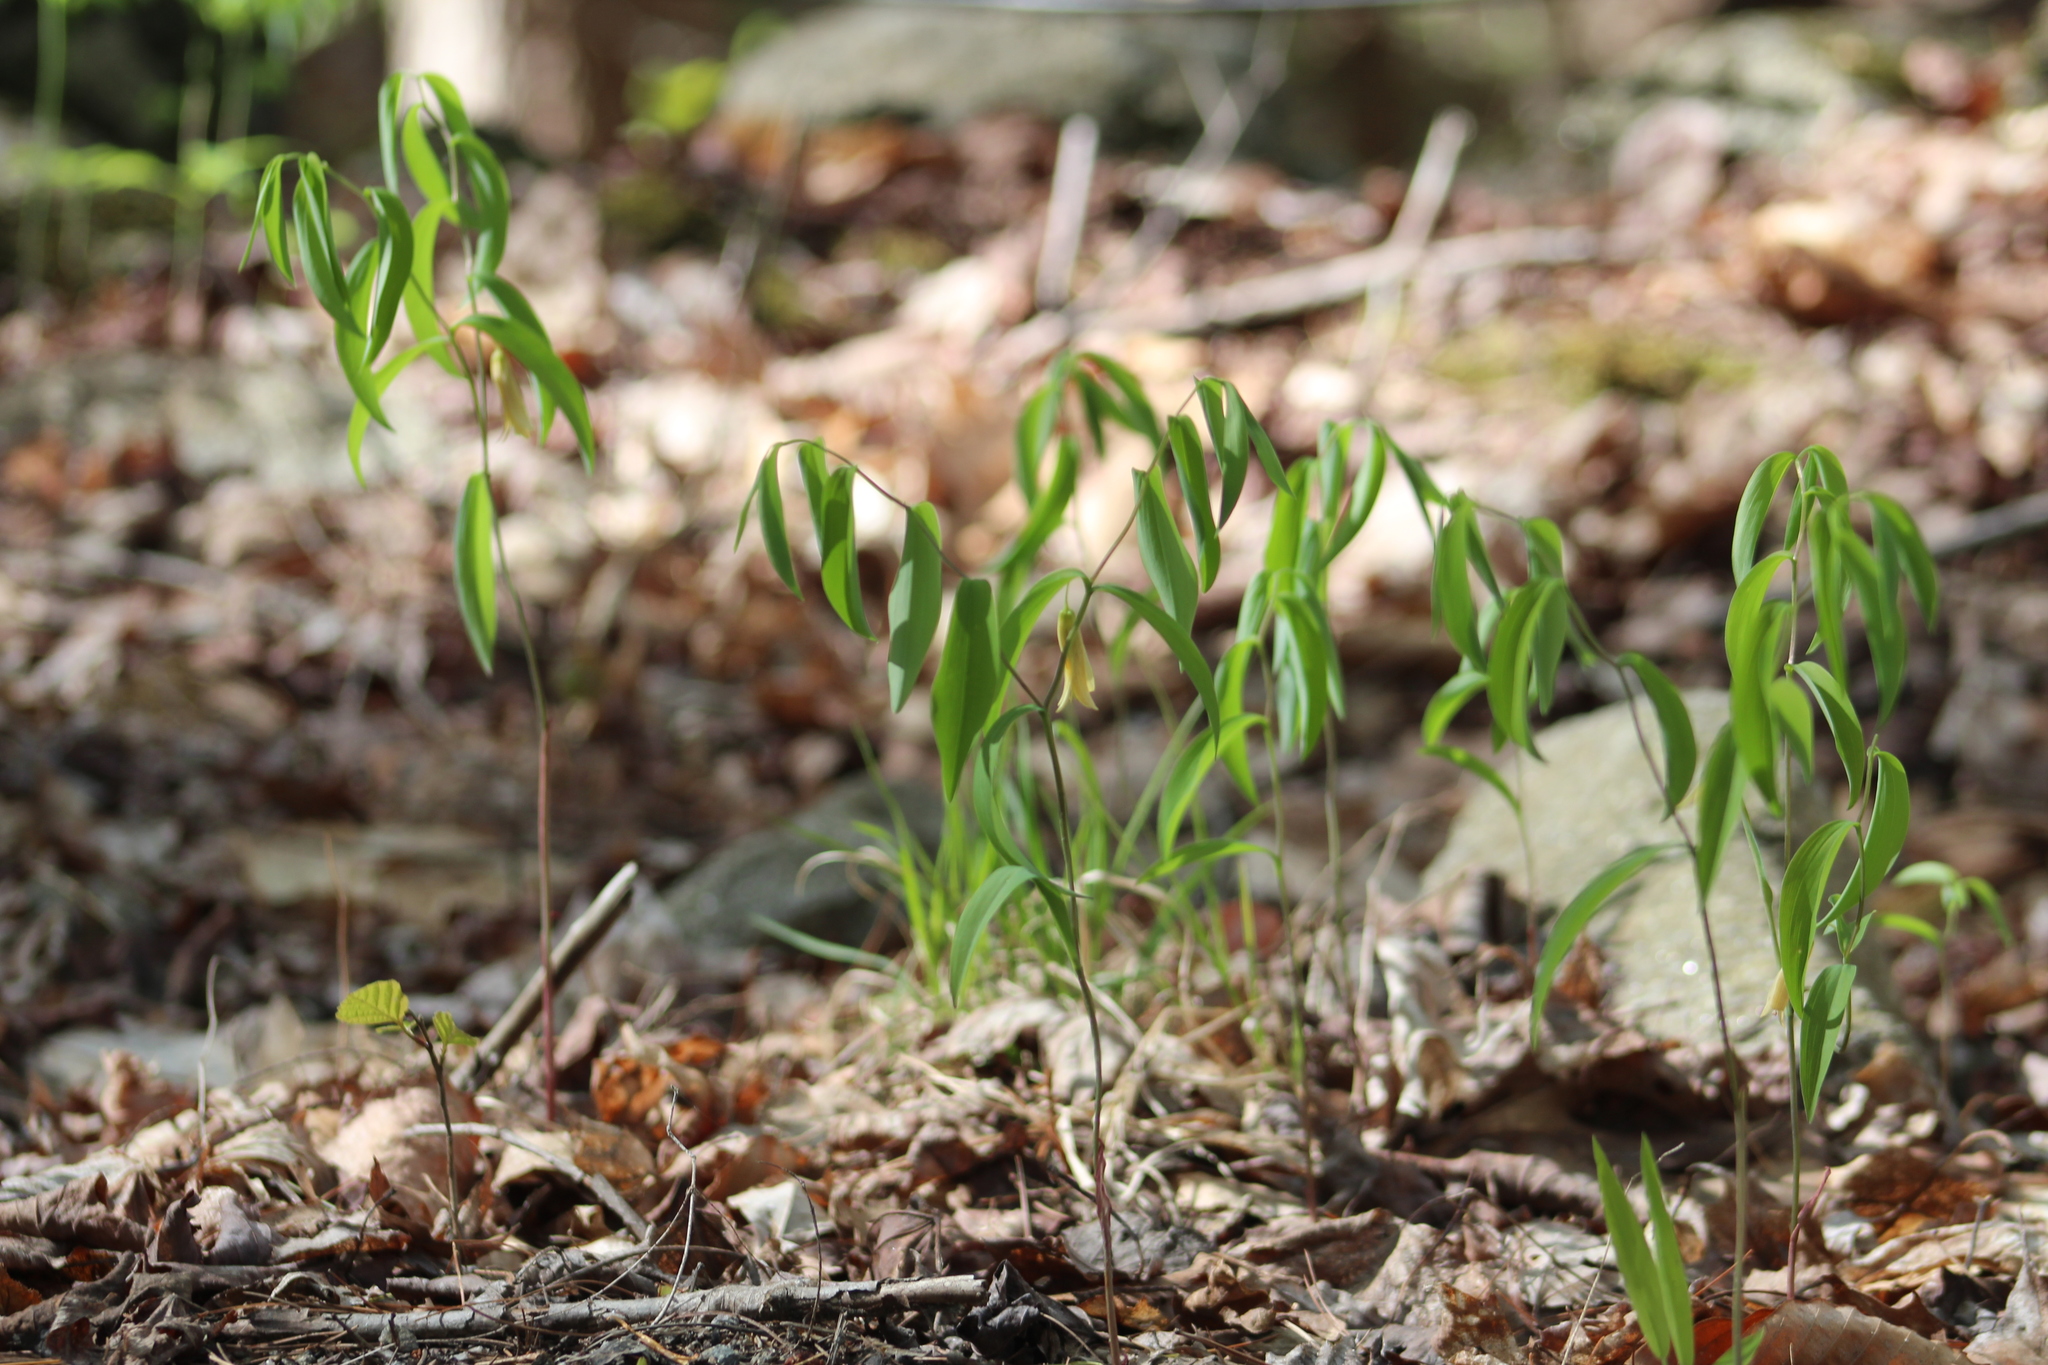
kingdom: Plantae
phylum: Tracheophyta
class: Liliopsida
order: Liliales
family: Colchicaceae
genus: Uvularia
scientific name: Uvularia sessilifolia
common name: Straw-lily
